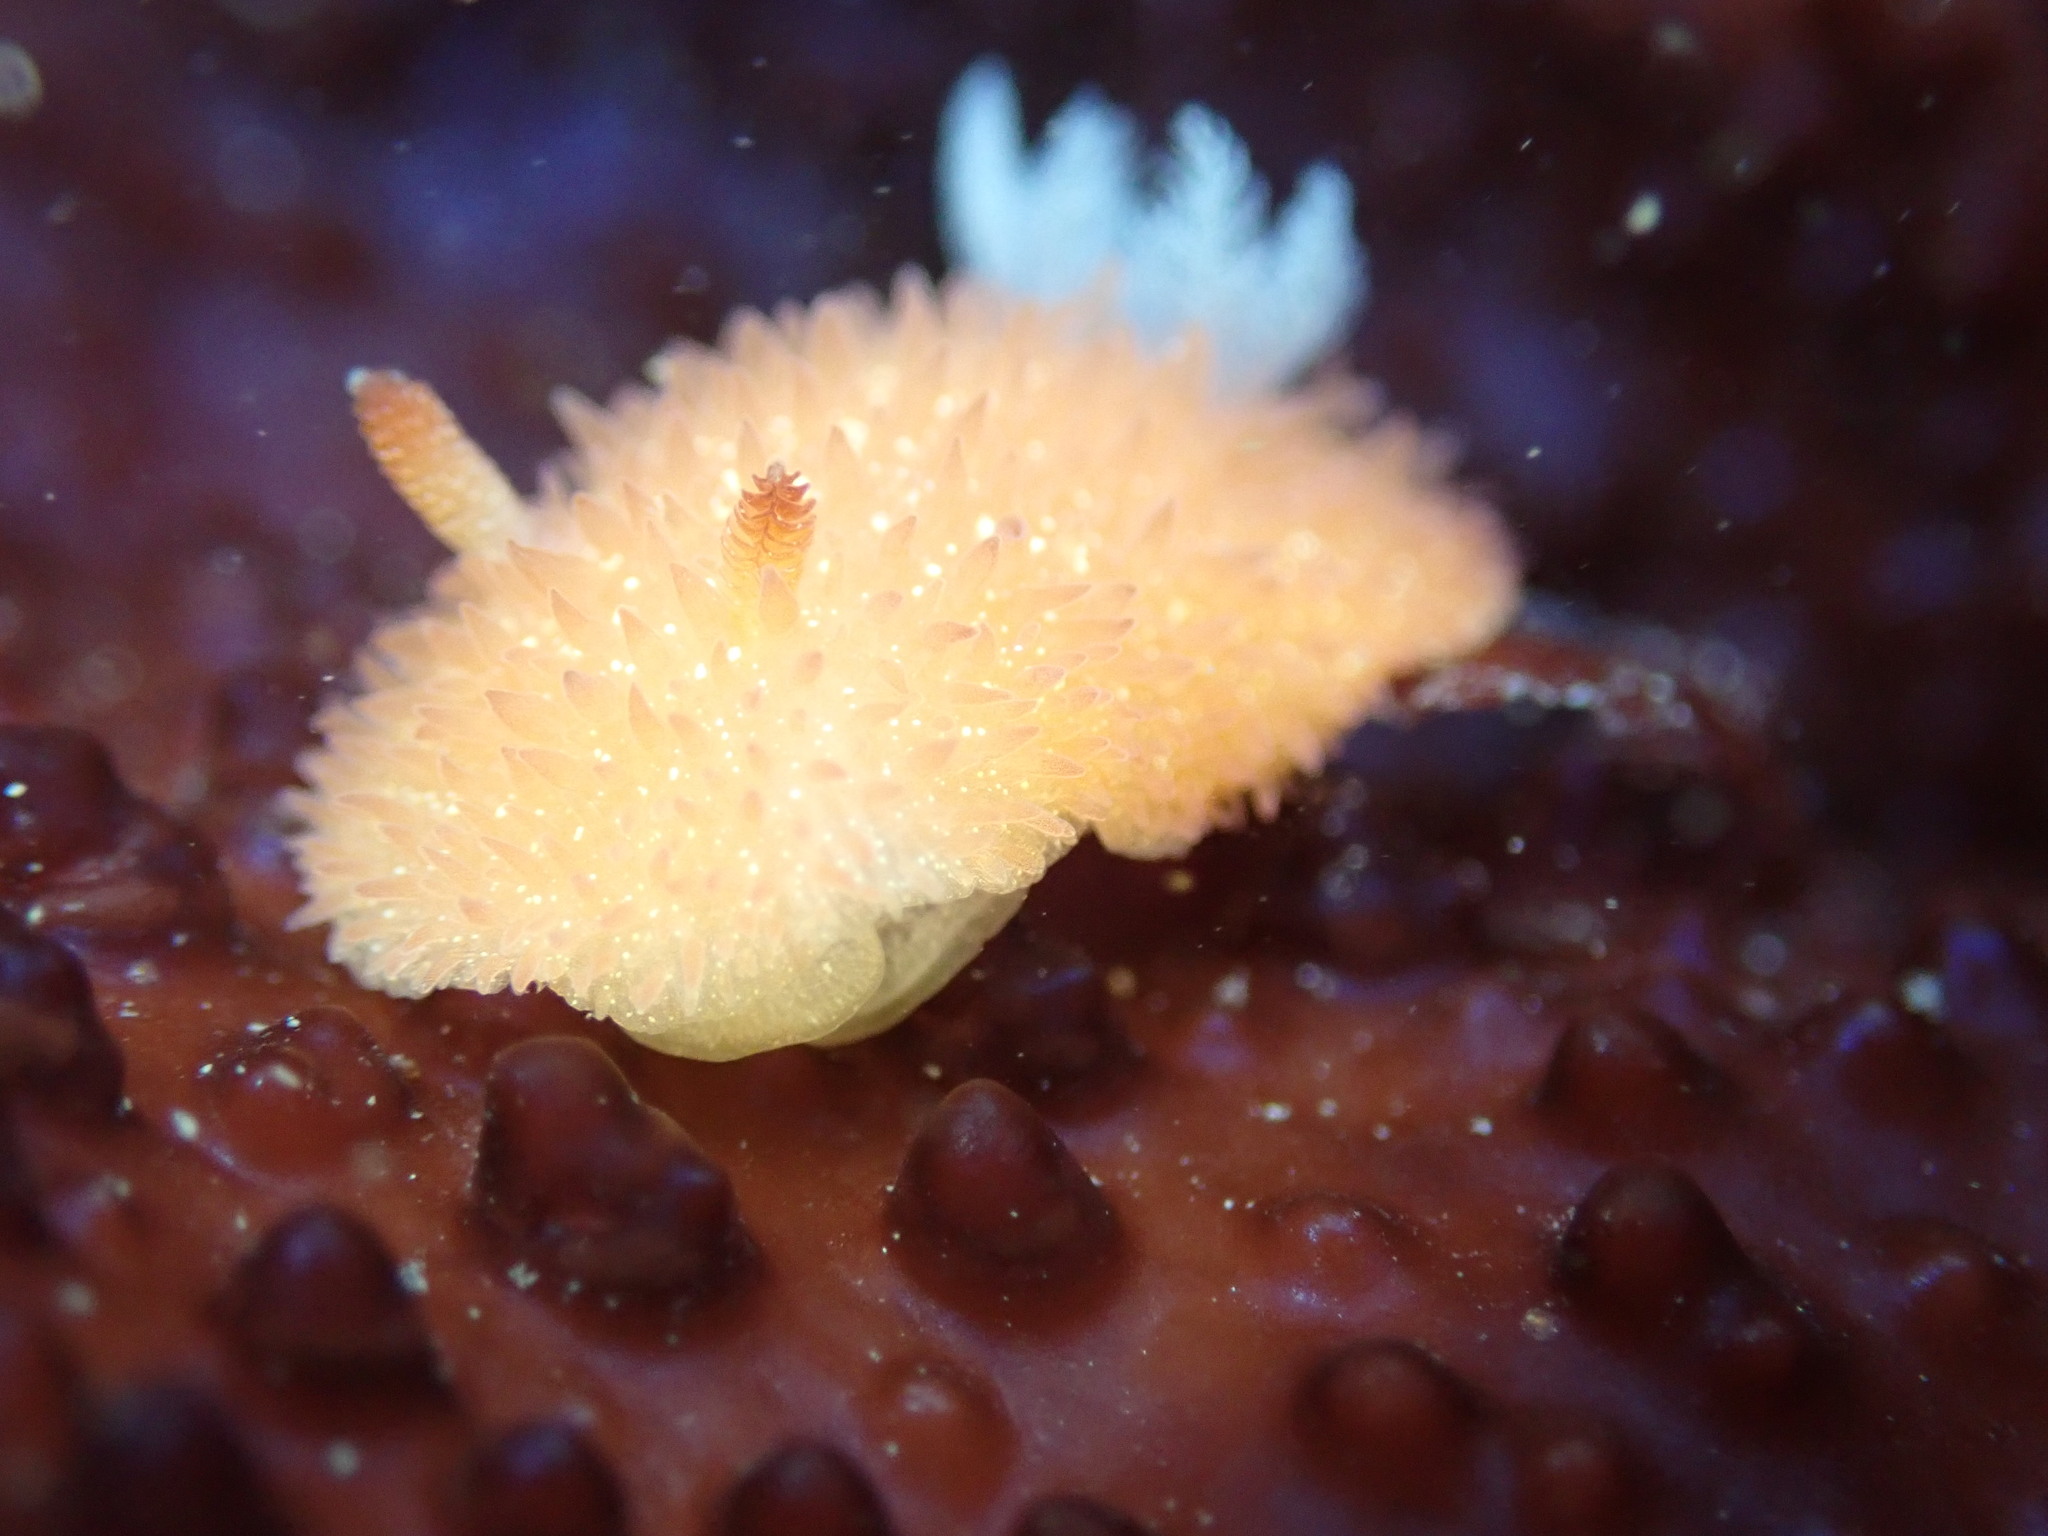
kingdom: Animalia
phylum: Mollusca
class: Gastropoda
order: Nudibranchia
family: Onchidorididae
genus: Acanthodoris
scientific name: Acanthodoris lutea
